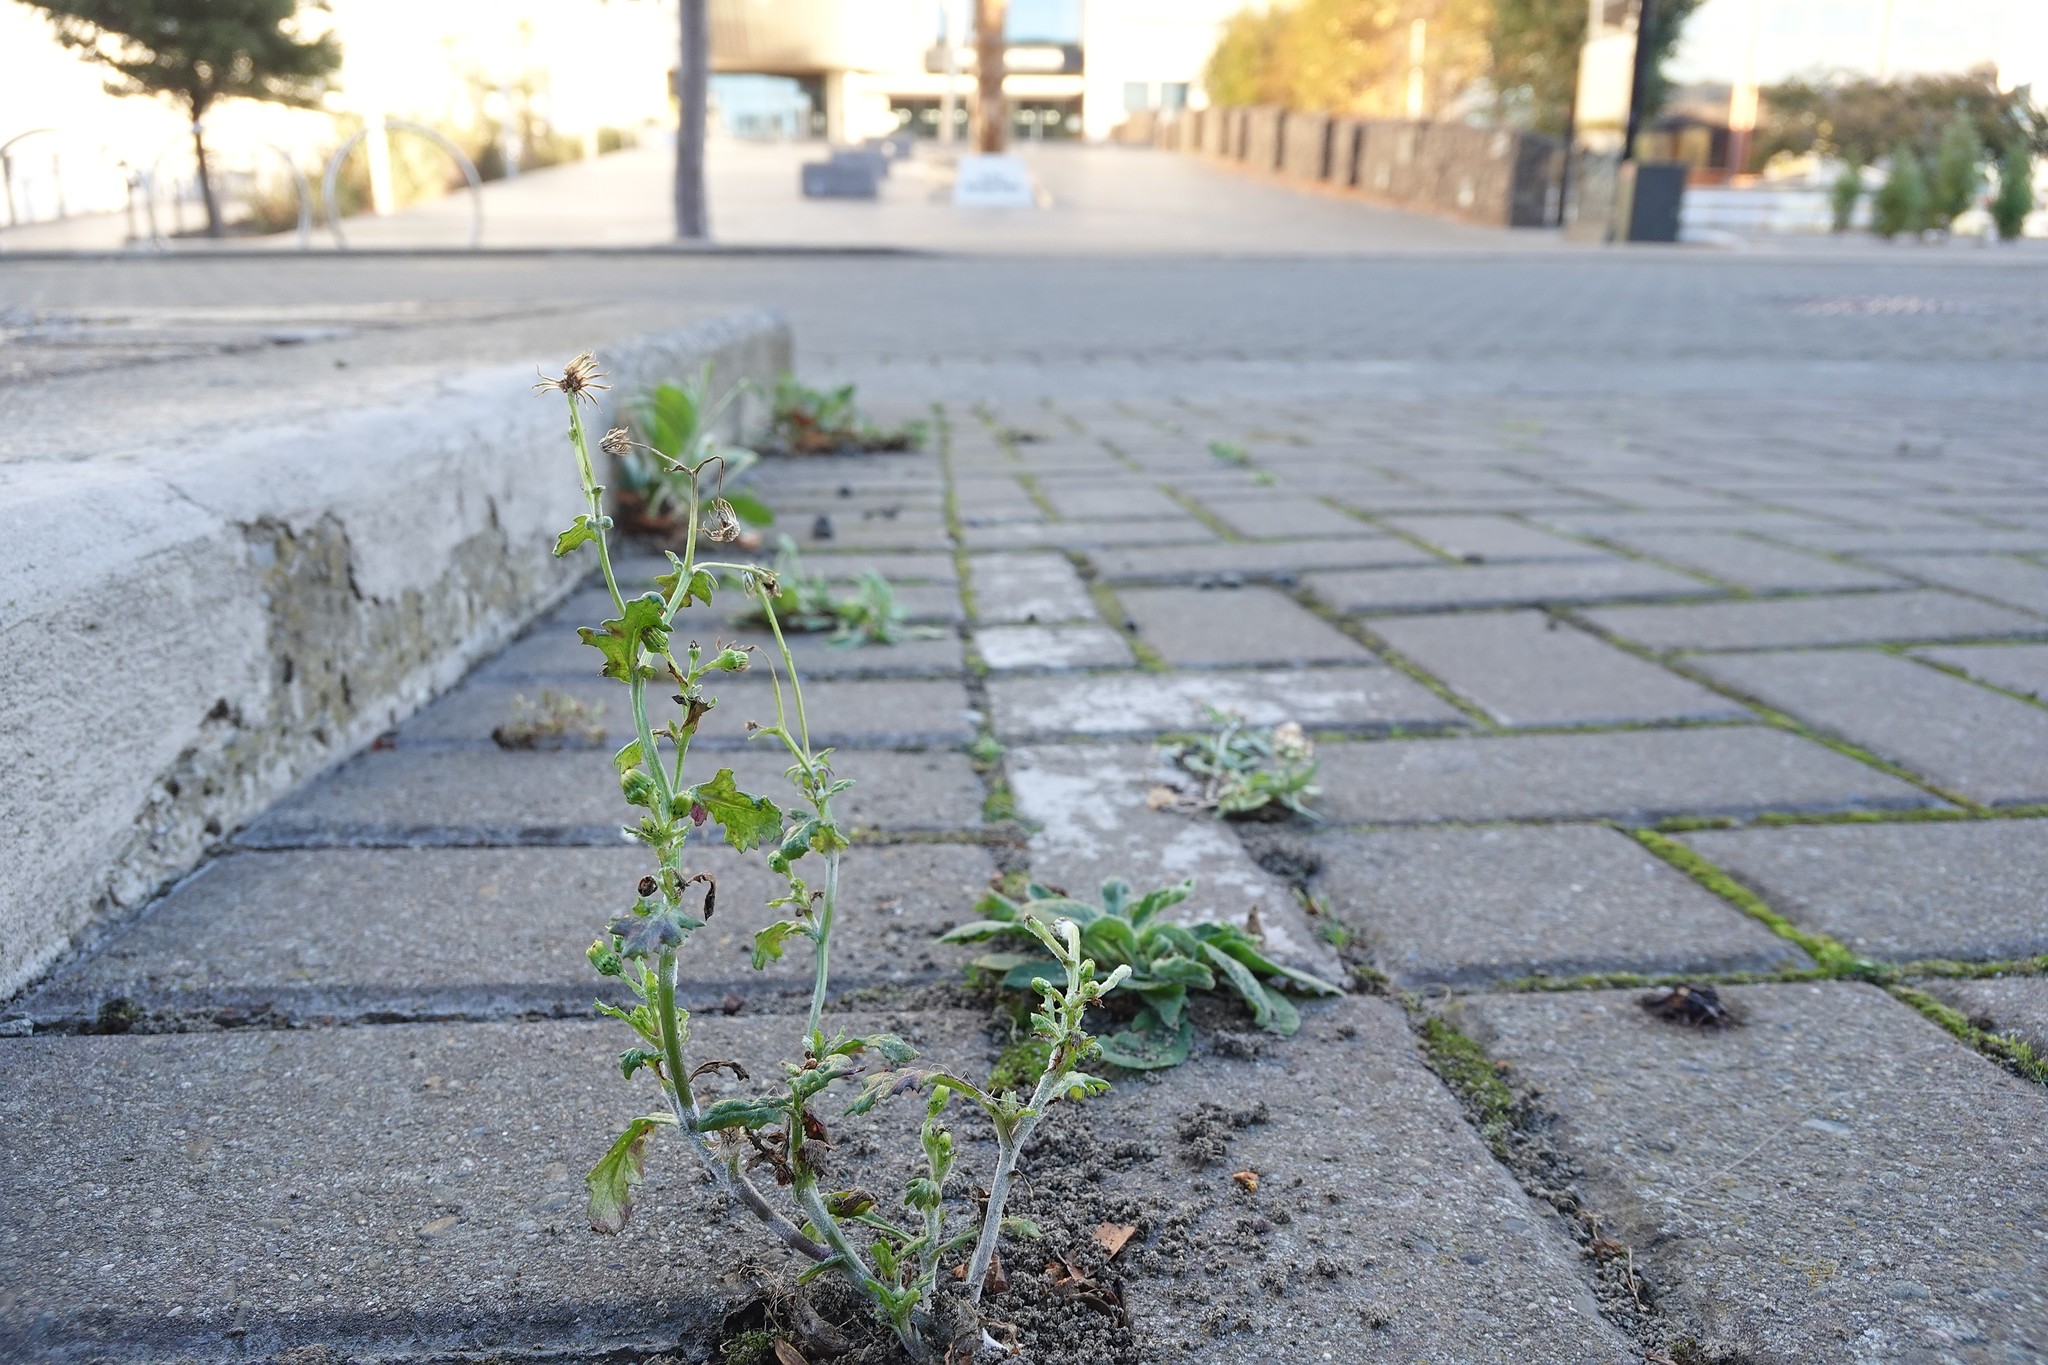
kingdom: Plantae
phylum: Tracheophyta
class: Magnoliopsida
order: Asterales
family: Asteraceae
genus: Senecio
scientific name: Senecio vulgaris
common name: Old-man-in-the-spring
